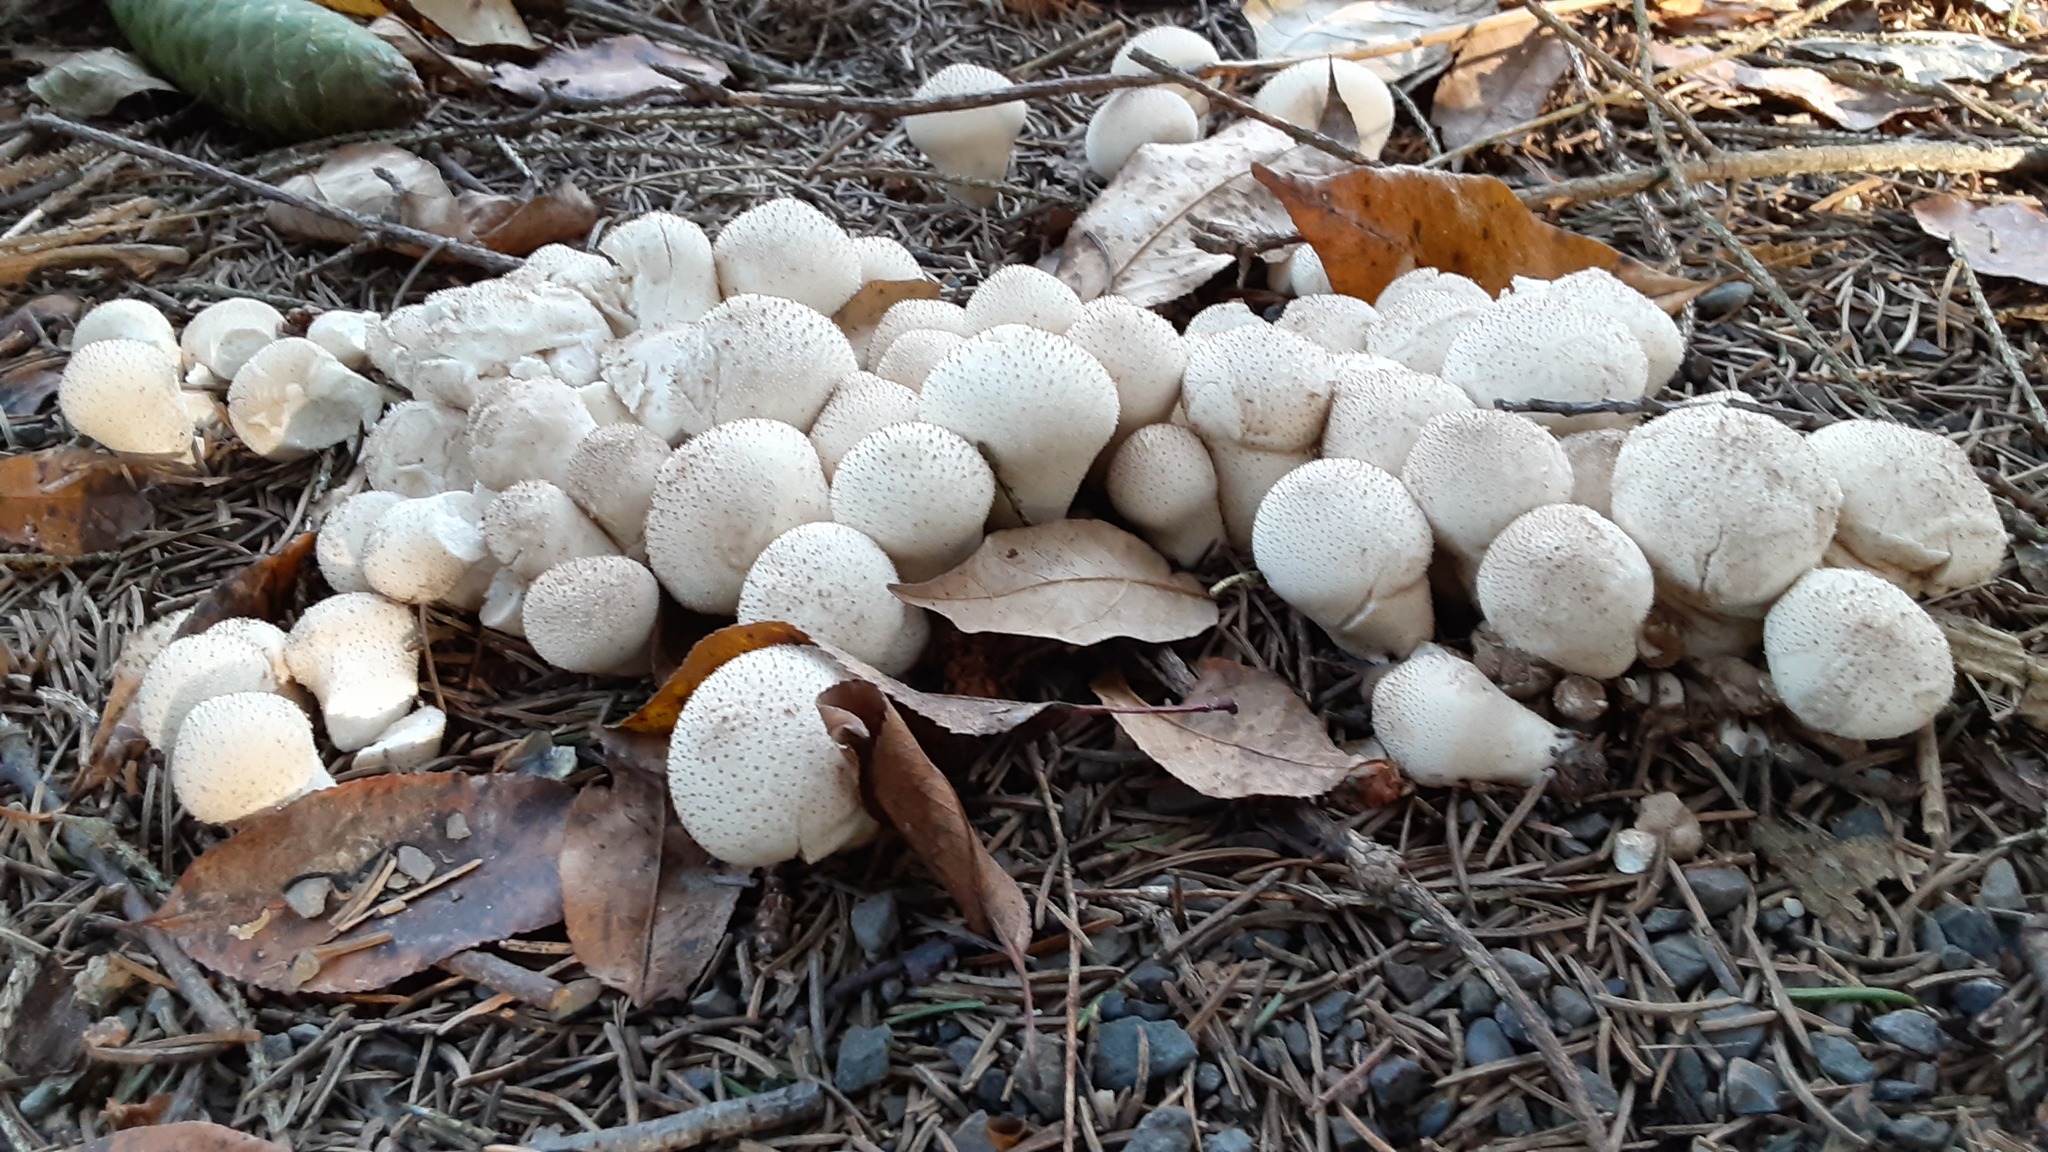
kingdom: Fungi
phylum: Basidiomycota
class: Agaricomycetes
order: Agaricales
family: Lycoperdaceae
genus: Lycoperdon
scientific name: Lycoperdon perlatum
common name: Common puffball
